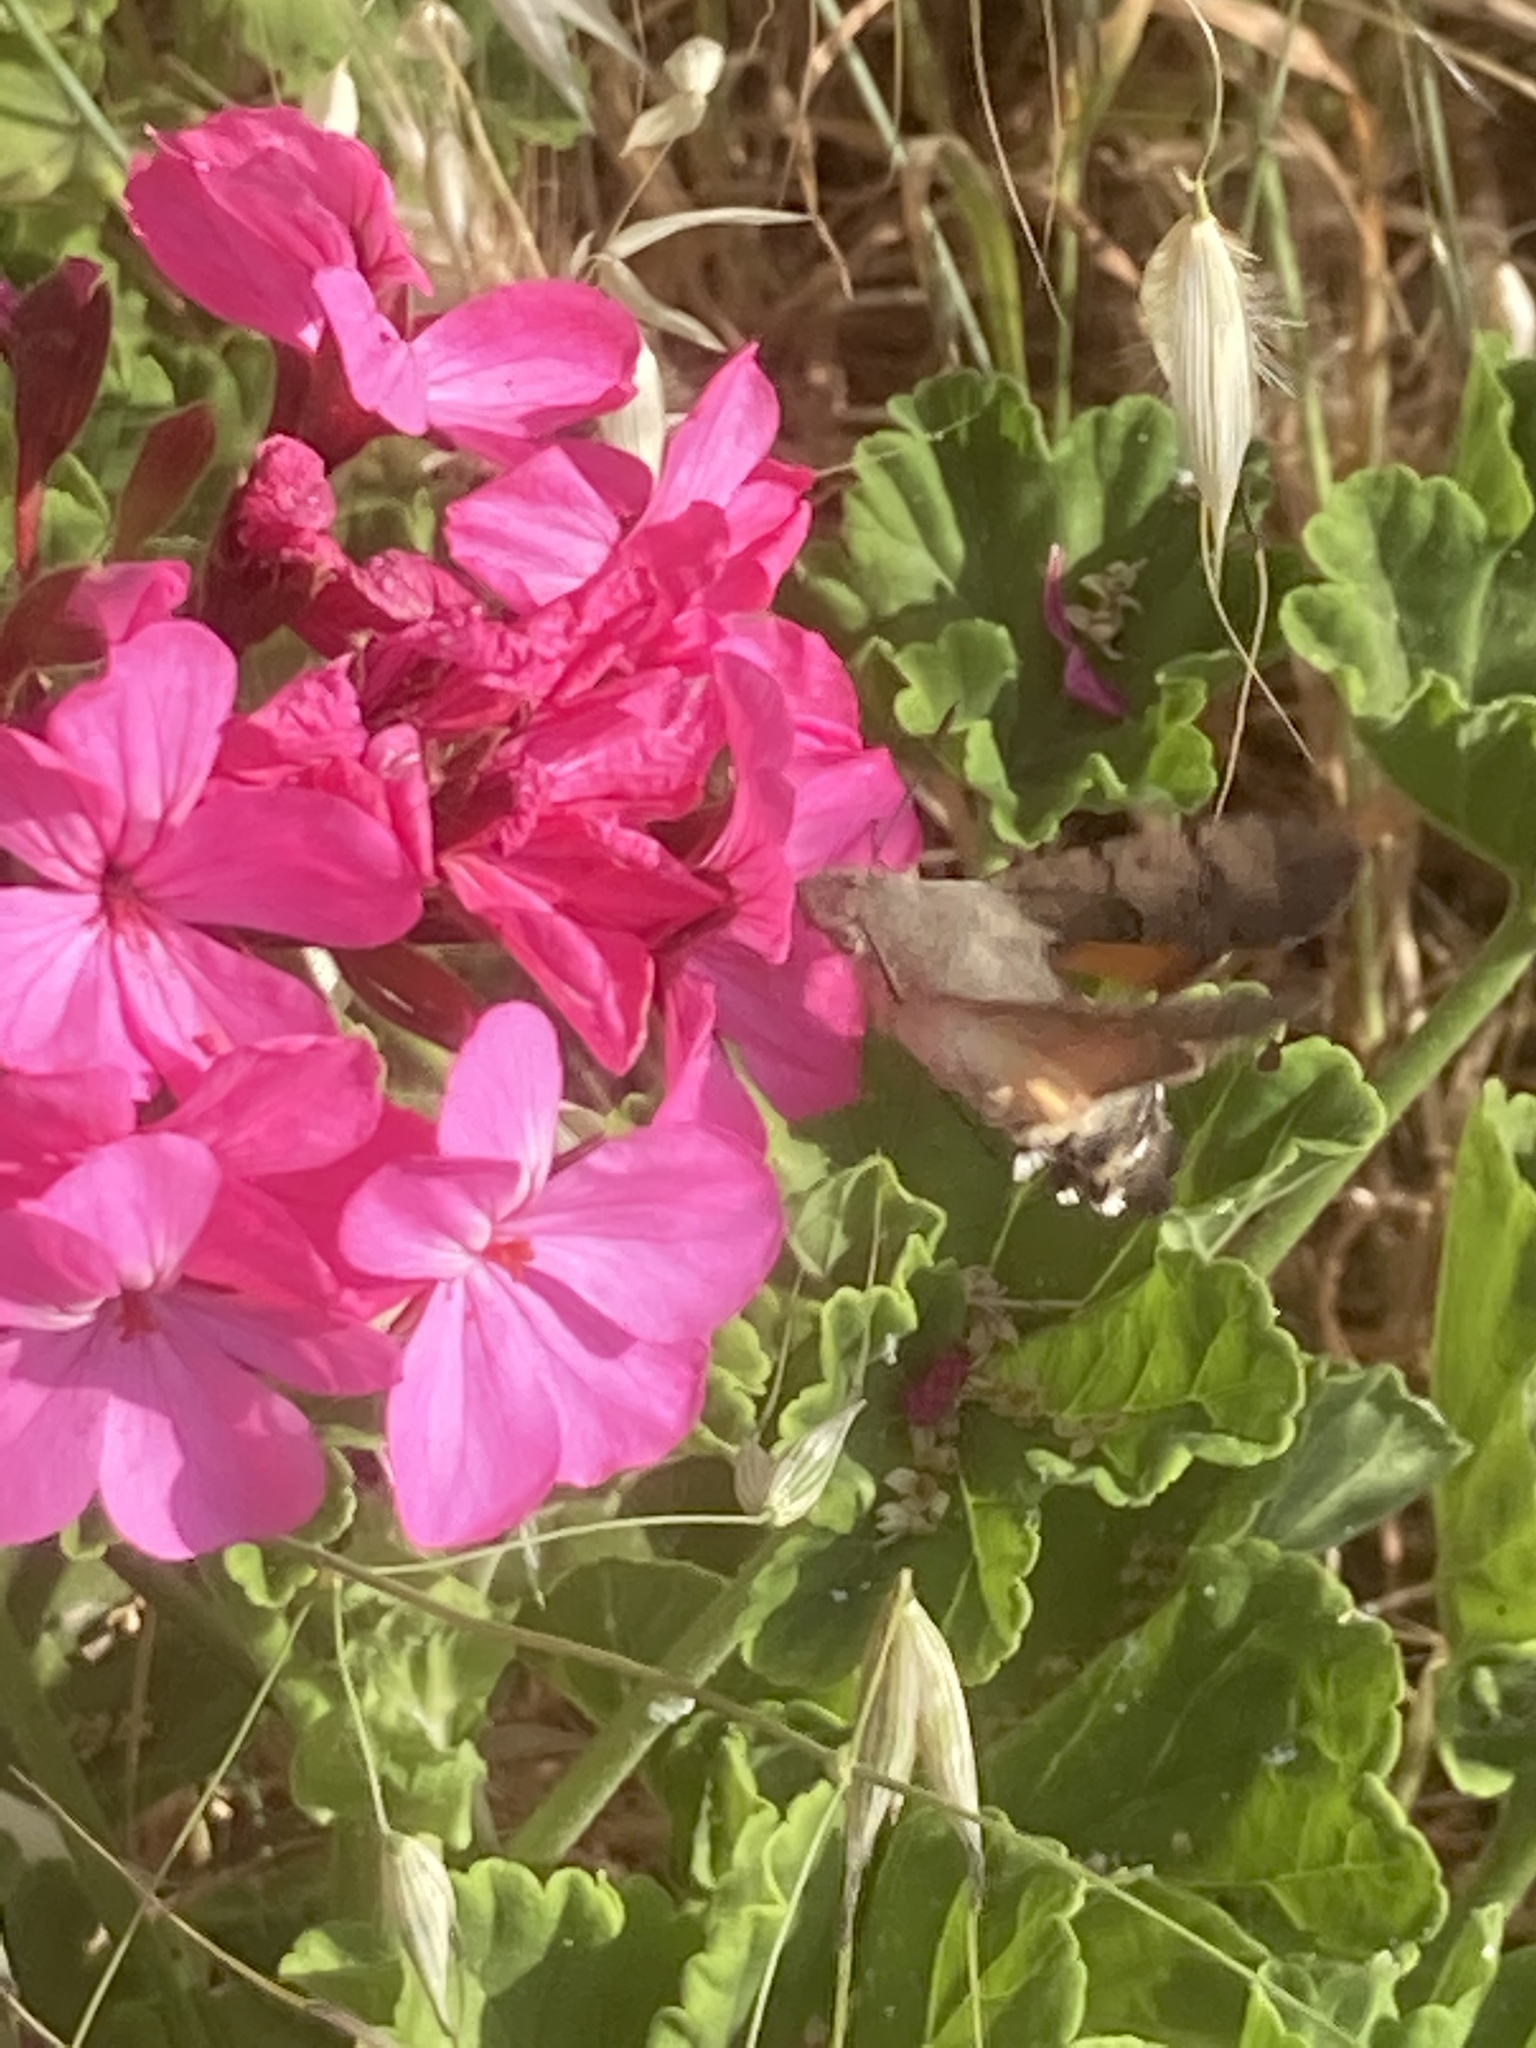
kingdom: Animalia
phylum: Arthropoda
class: Insecta
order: Lepidoptera
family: Sphingidae
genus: Macroglossum
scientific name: Macroglossum stellatarum
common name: Humming-bird hawk-moth
